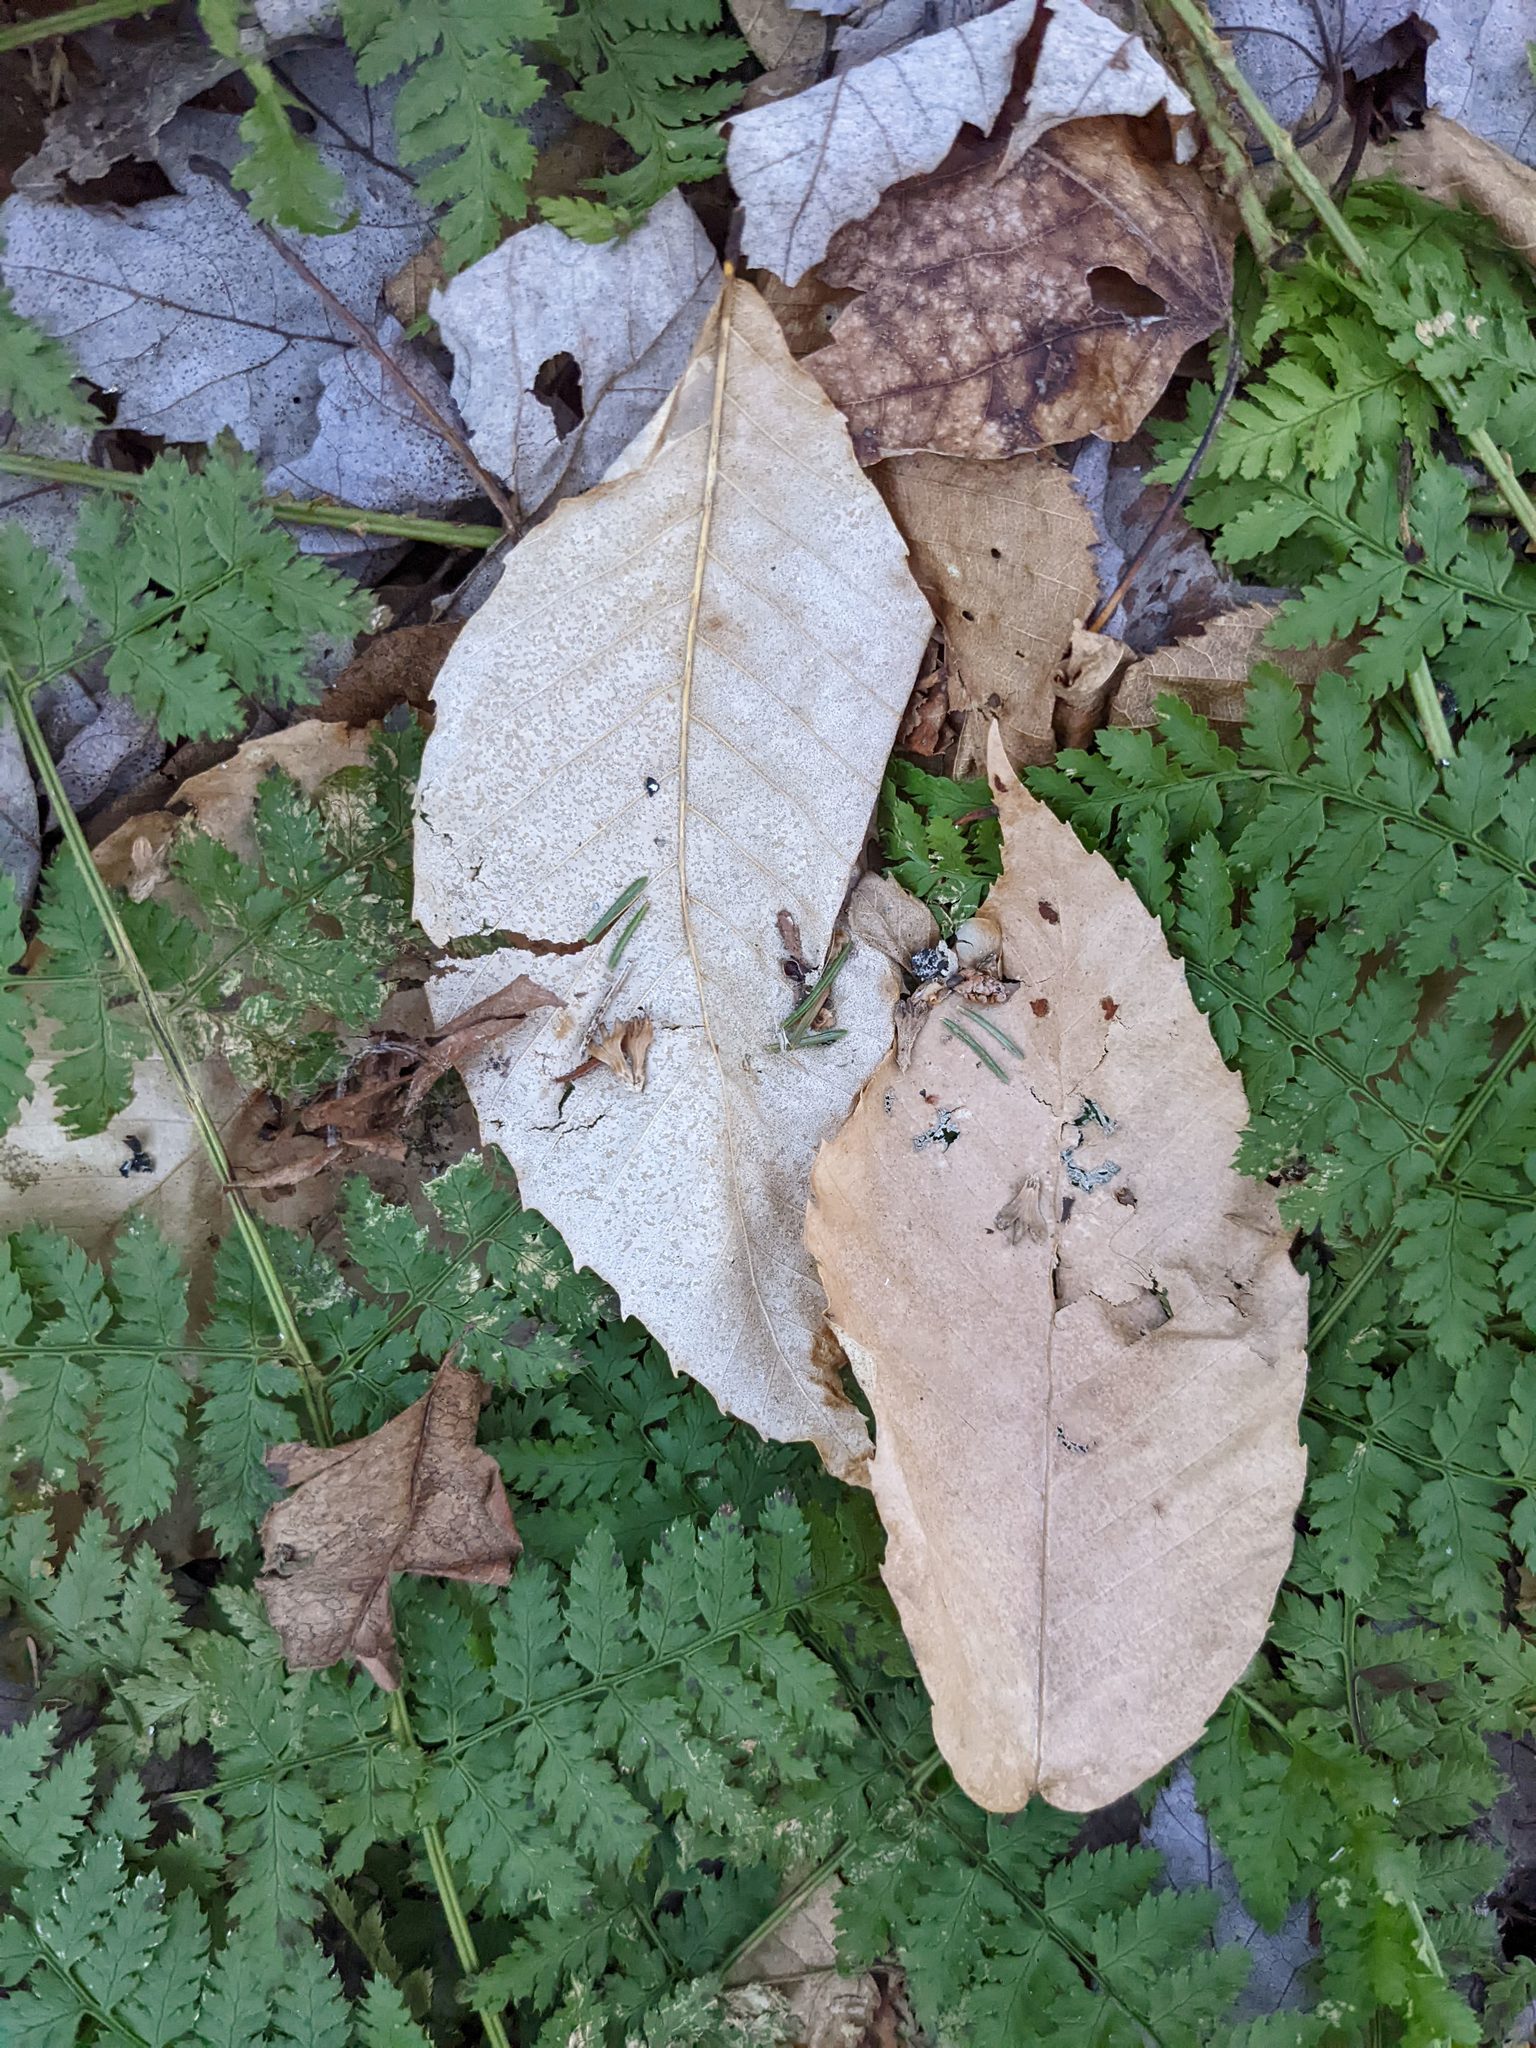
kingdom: Plantae
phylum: Tracheophyta
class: Magnoliopsida
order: Fagales
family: Fagaceae
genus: Fagus
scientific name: Fagus grandifolia
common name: American beech
